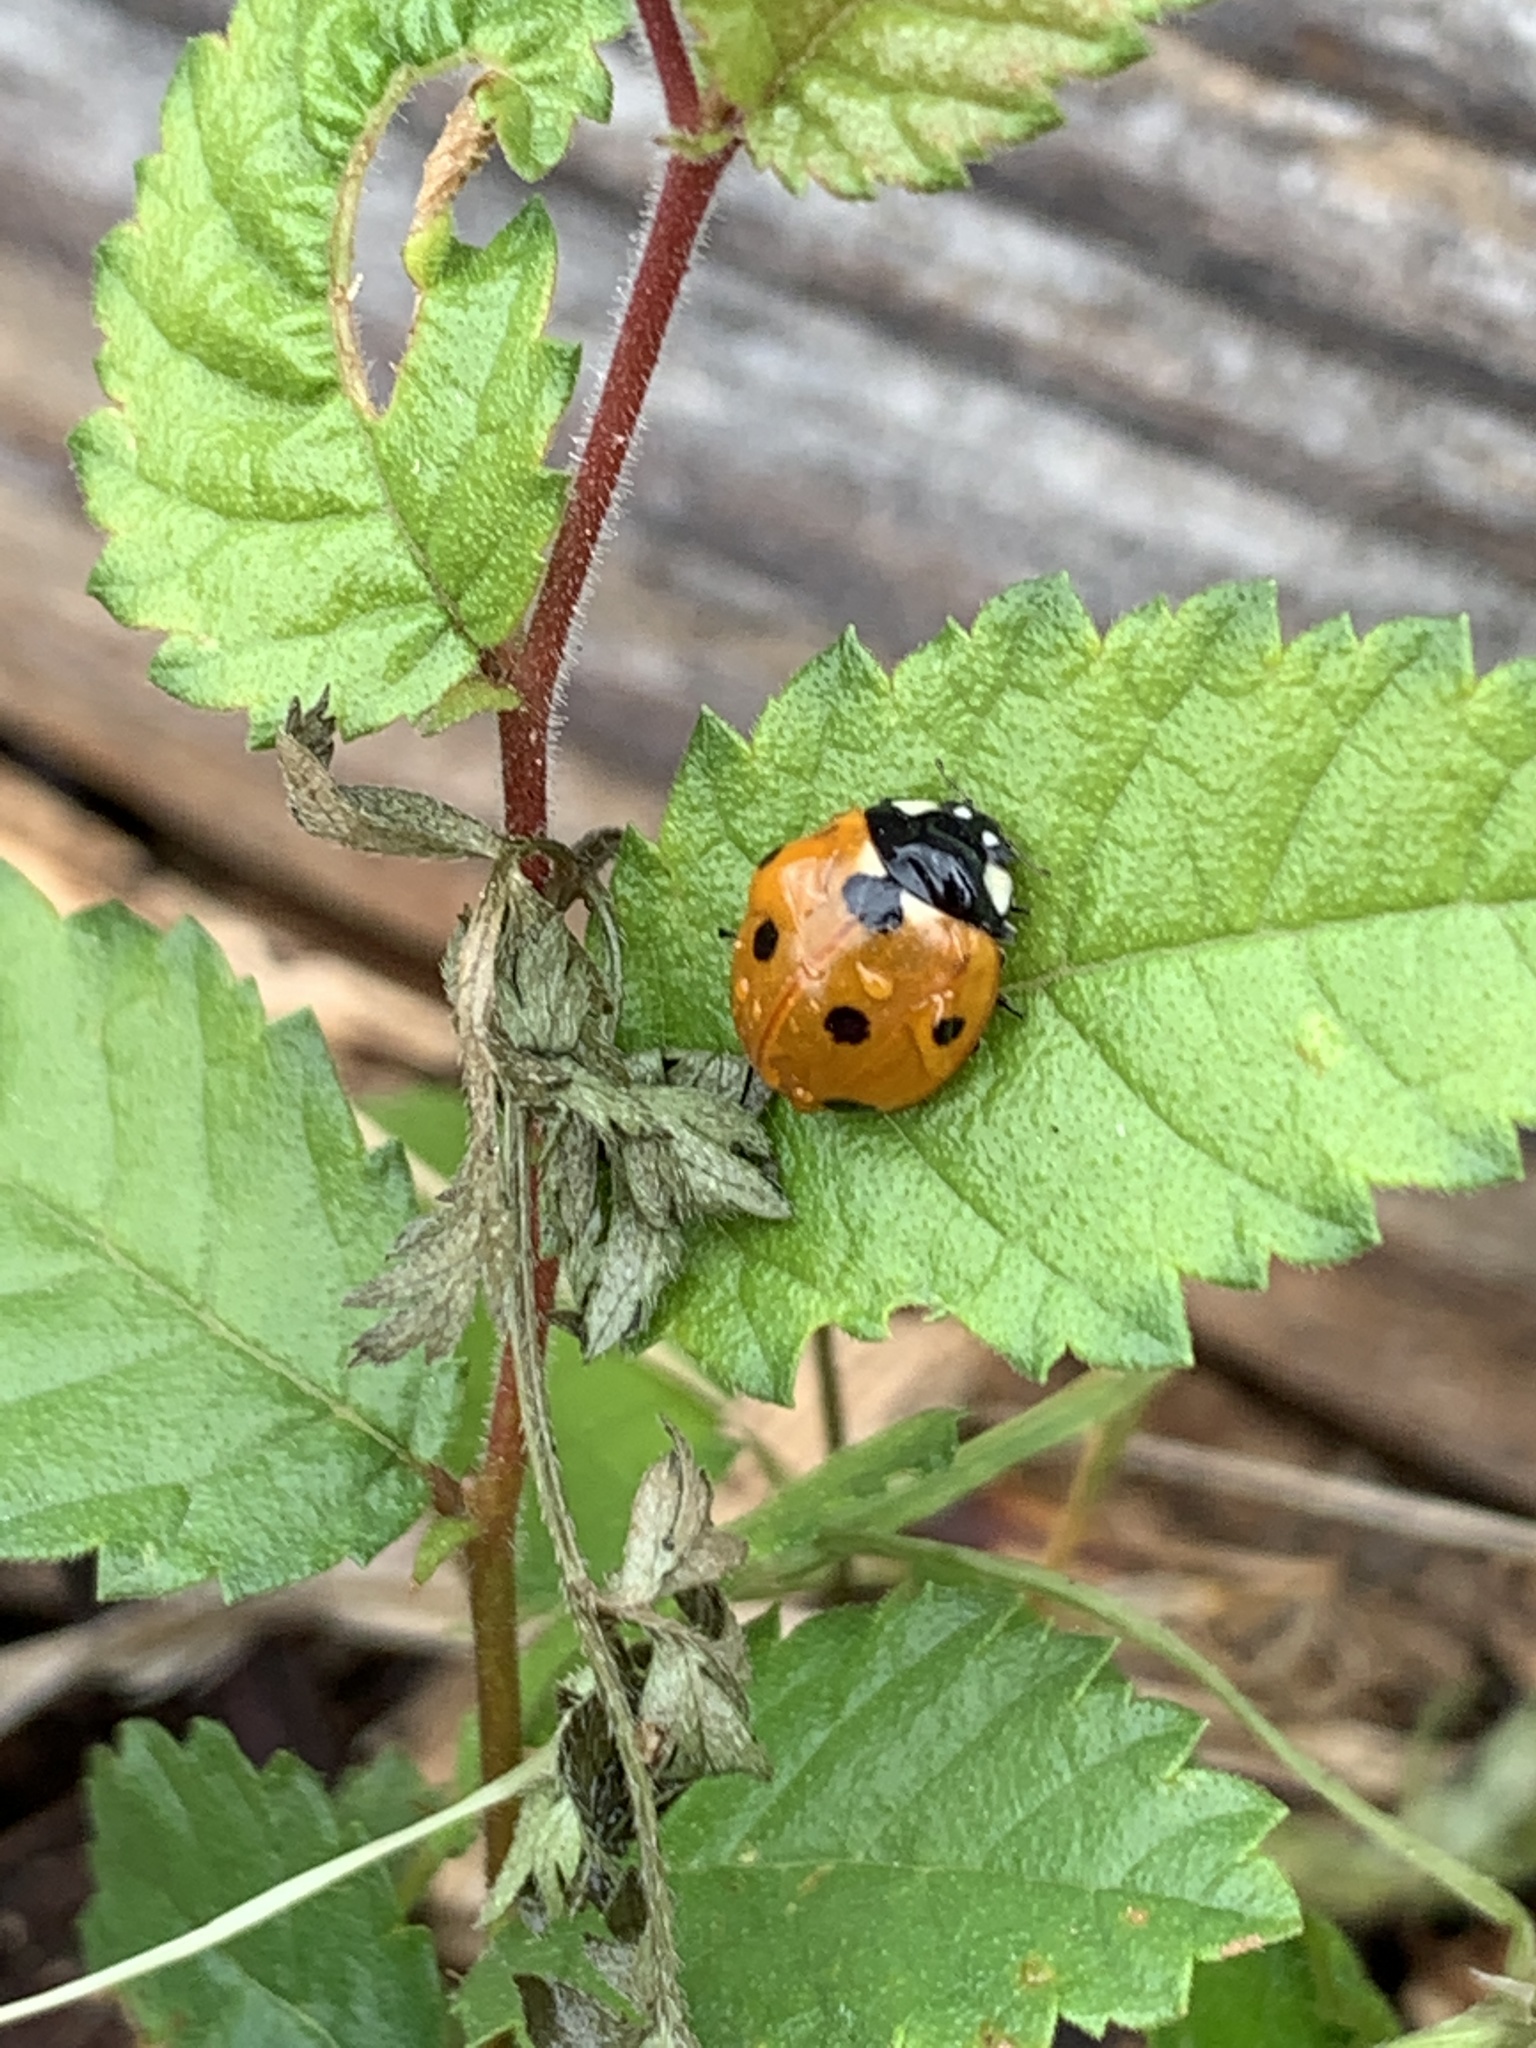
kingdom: Animalia
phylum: Arthropoda
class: Insecta
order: Coleoptera
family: Coccinellidae
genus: Coccinella
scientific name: Coccinella septempunctata
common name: Sevenspotted lady beetle
